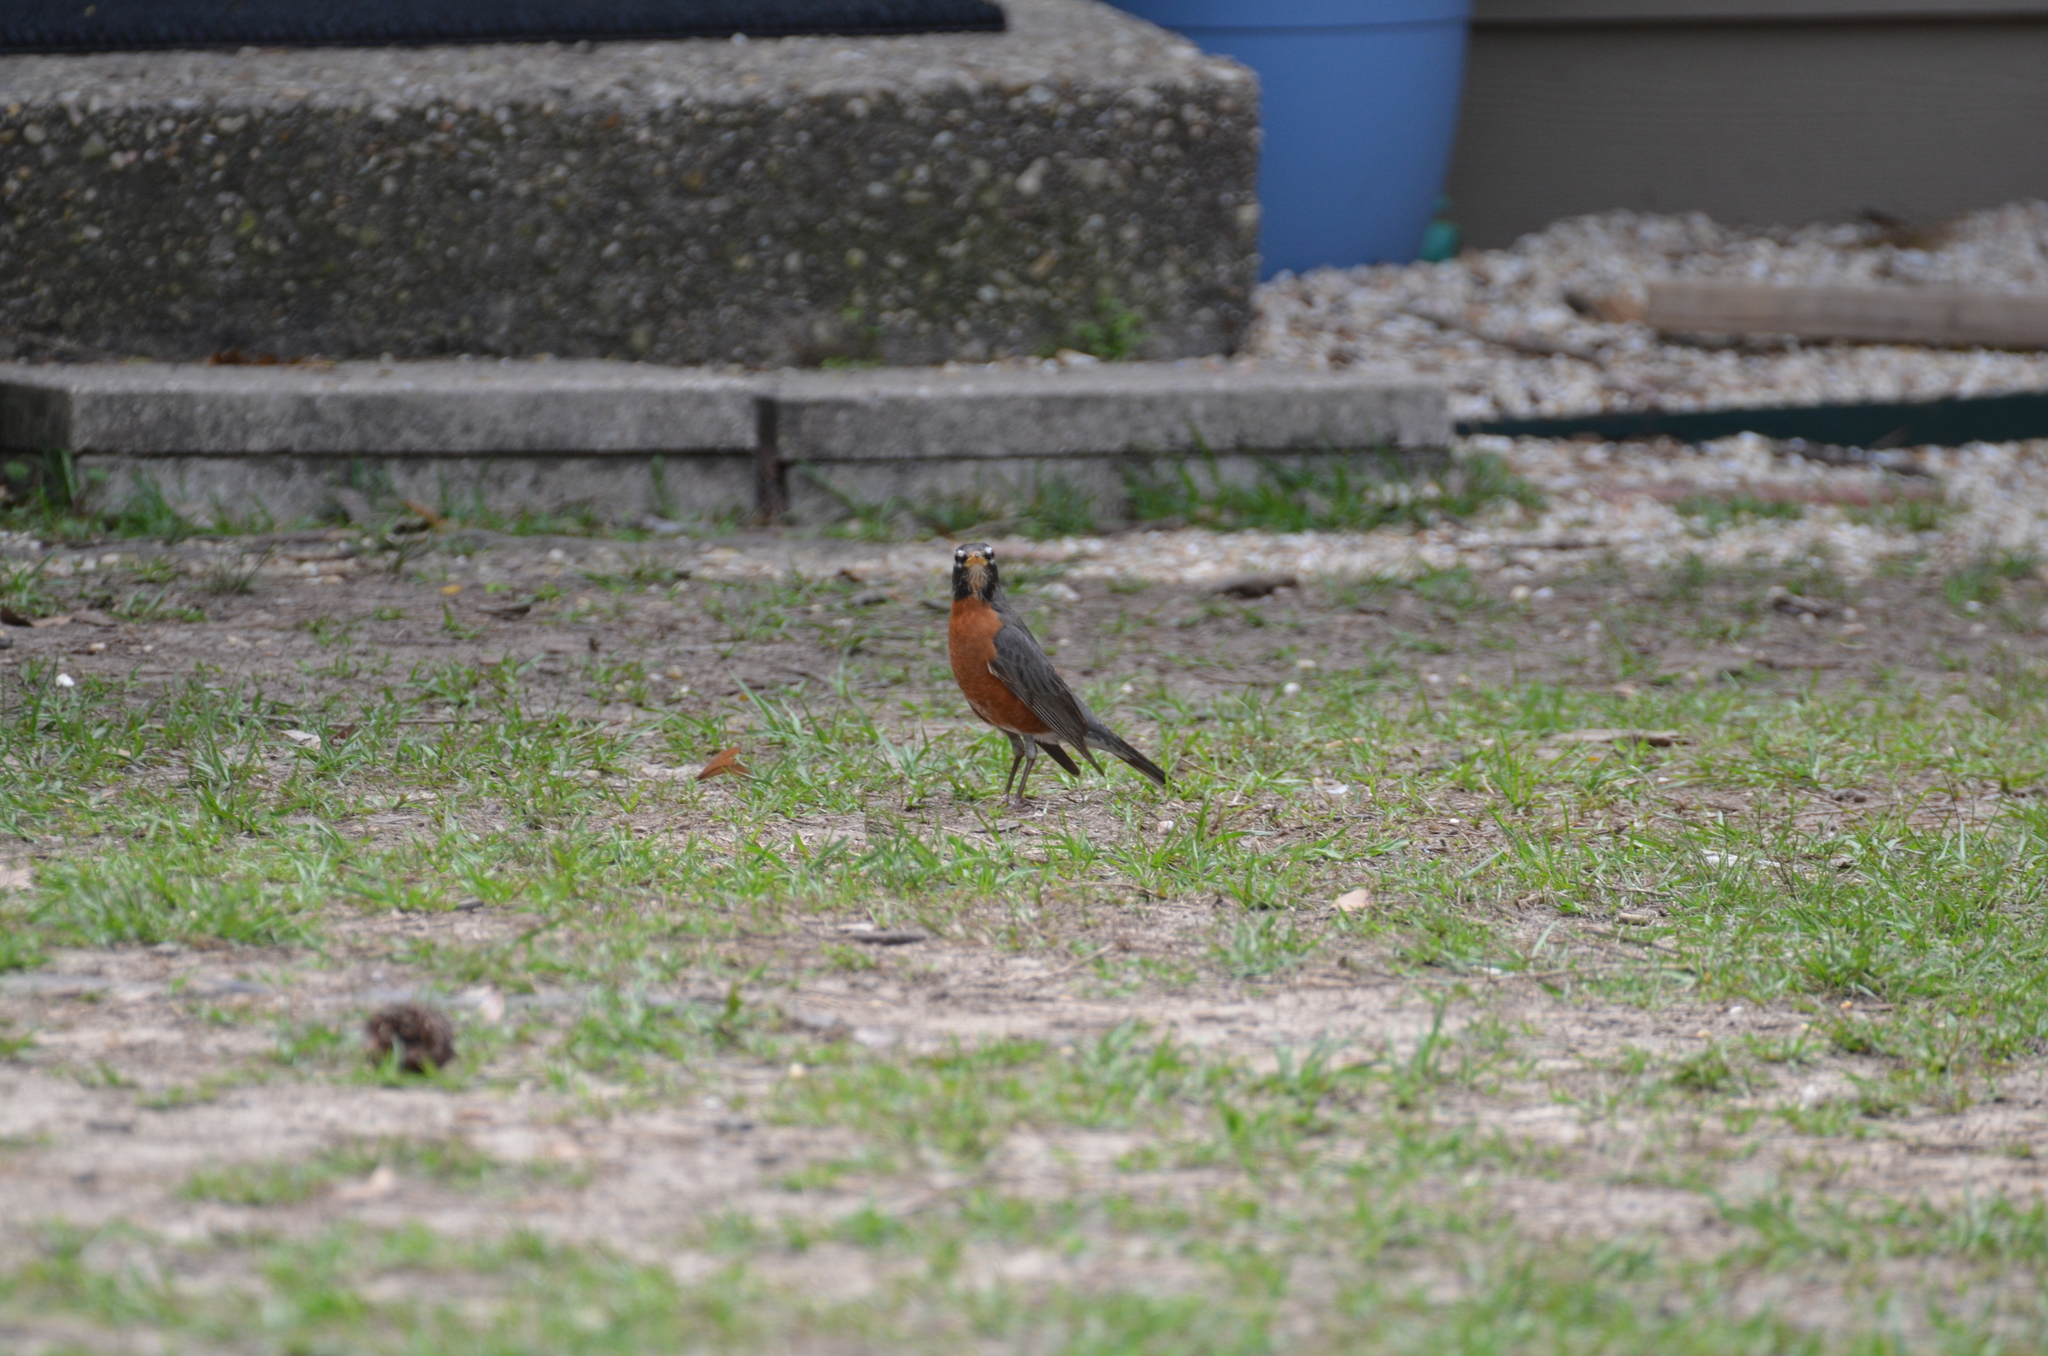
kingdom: Animalia
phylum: Chordata
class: Aves
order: Passeriformes
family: Turdidae
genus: Turdus
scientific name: Turdus migratorius
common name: American robin
